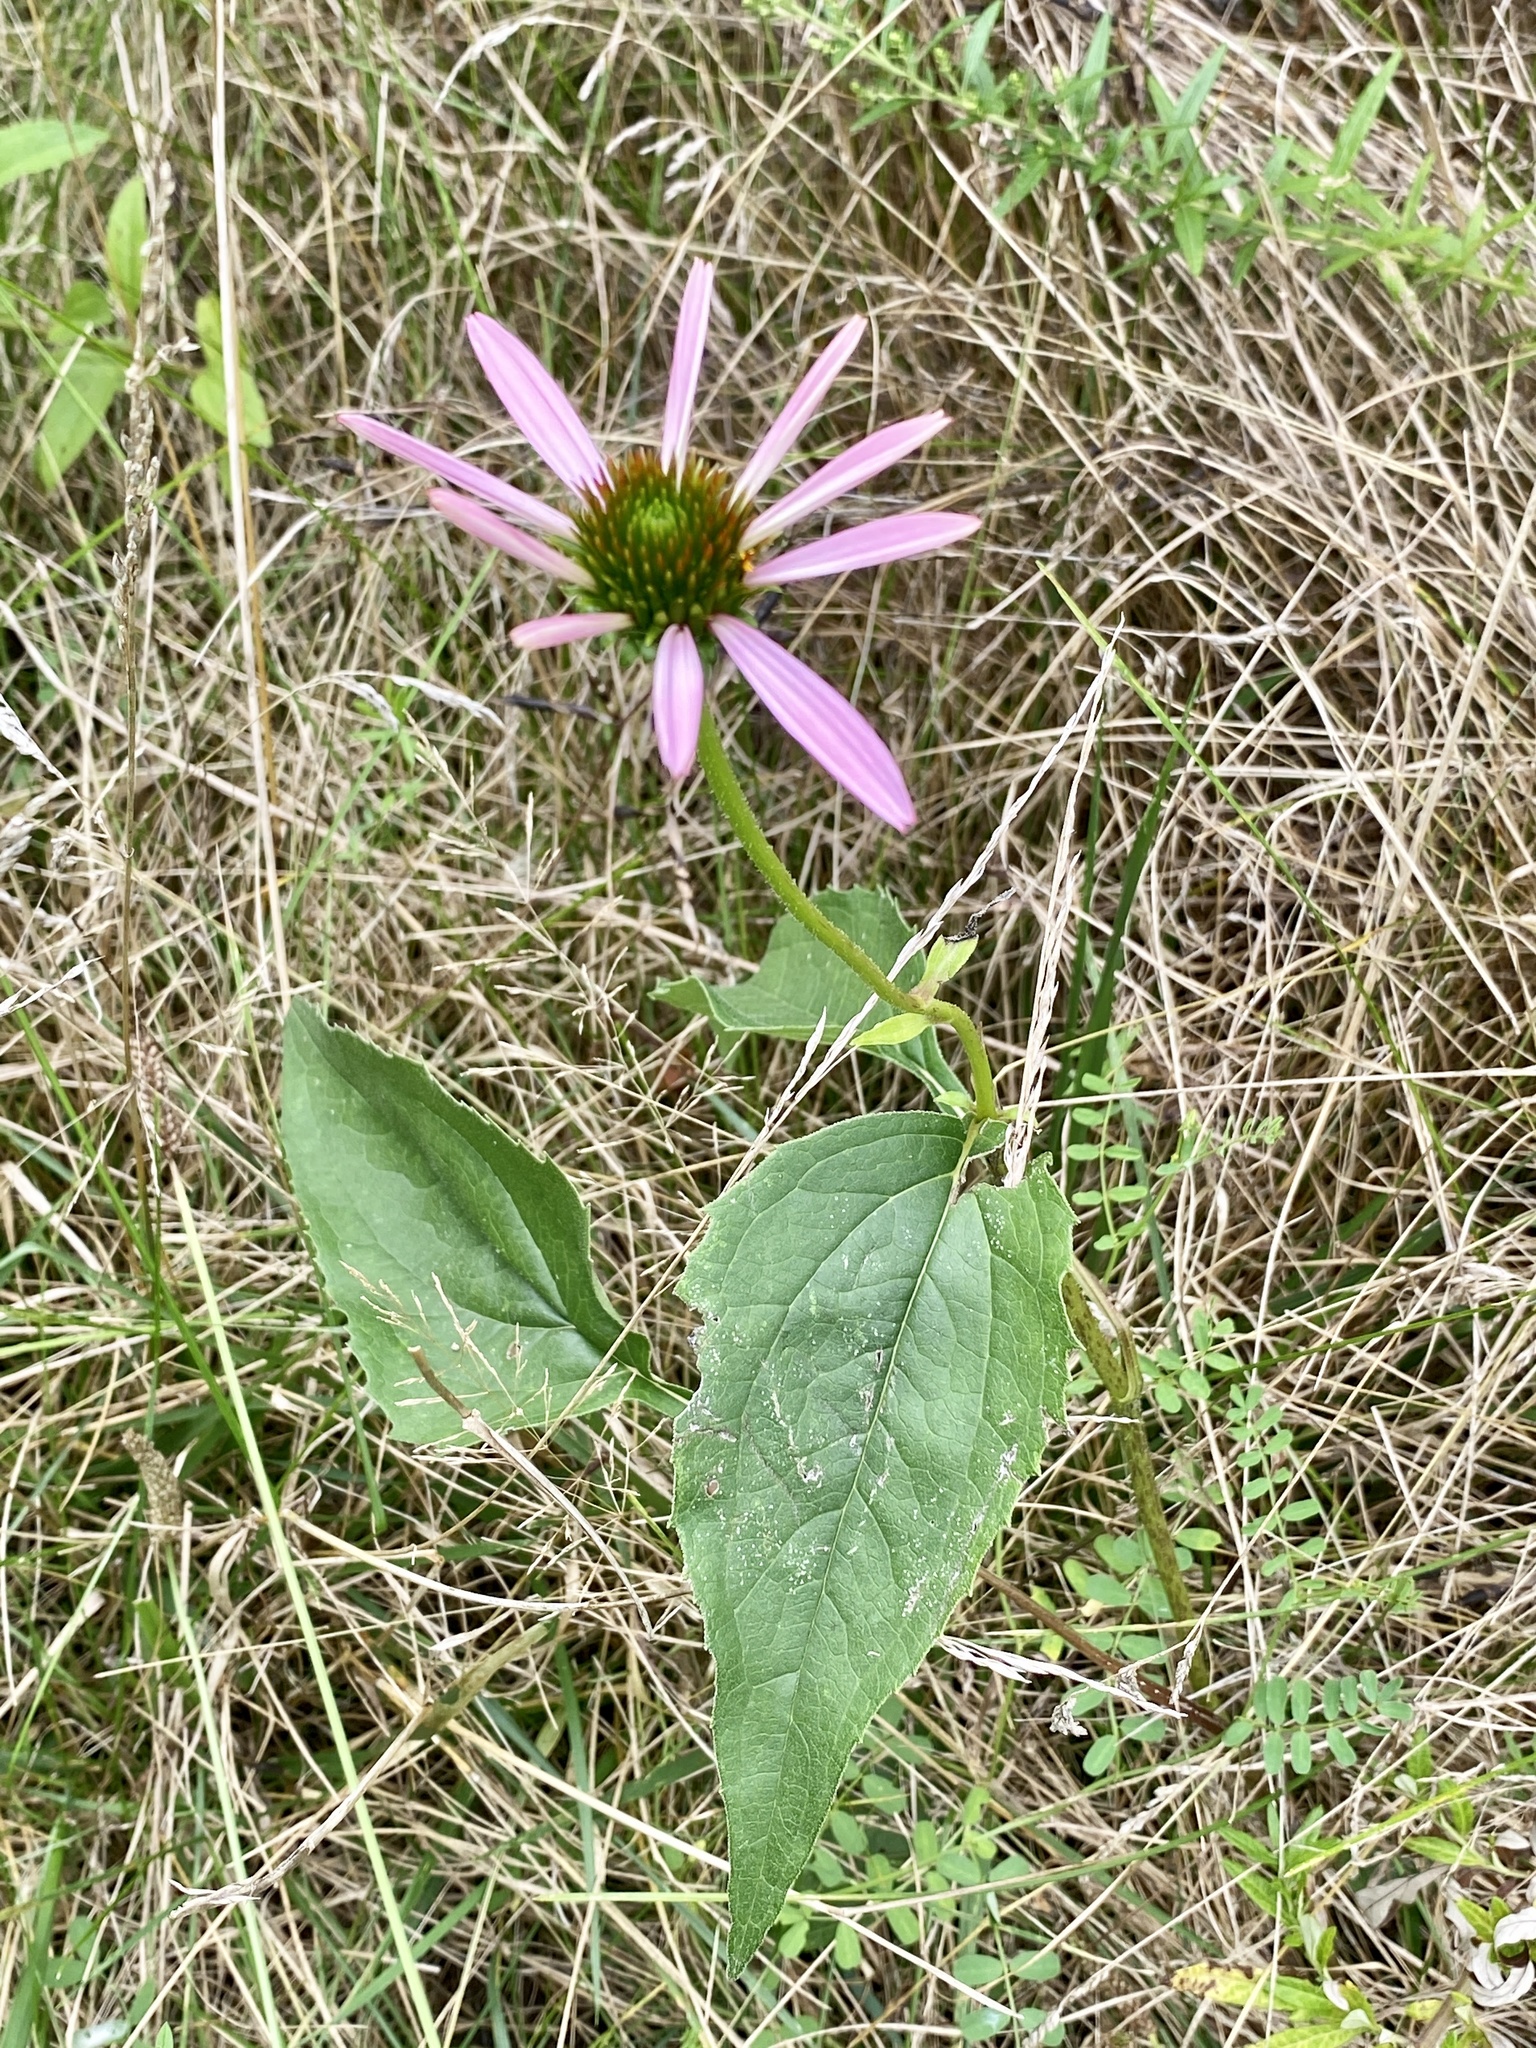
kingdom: Plantae
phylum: Tracheophyta
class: Magnoliopsida
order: Asterales
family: Asteraceae
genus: Echinacea
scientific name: Echinacea purpurea
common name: Broad-leaved purple coneflower
